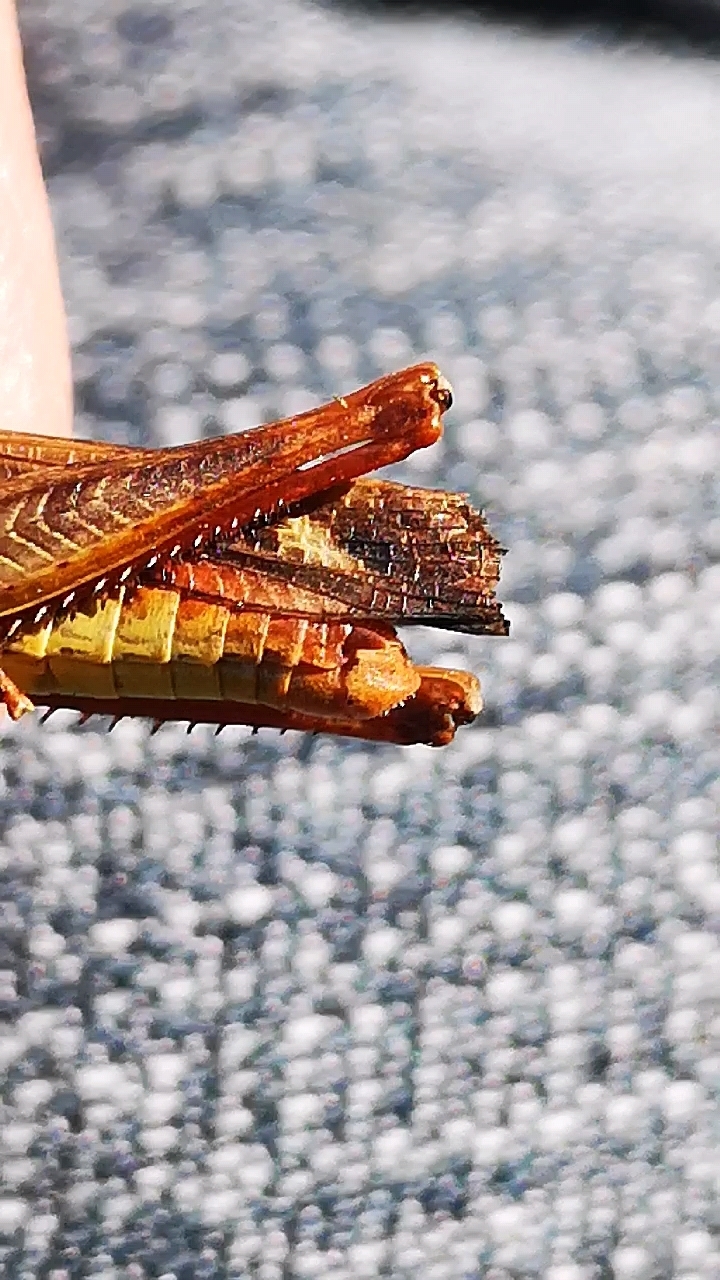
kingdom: Animalia
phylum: Arthropoda
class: Insecta
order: Orthoptera
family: Acrididae
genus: Chorthippus
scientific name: Chorthippus brunneus
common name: Field grasshopper
